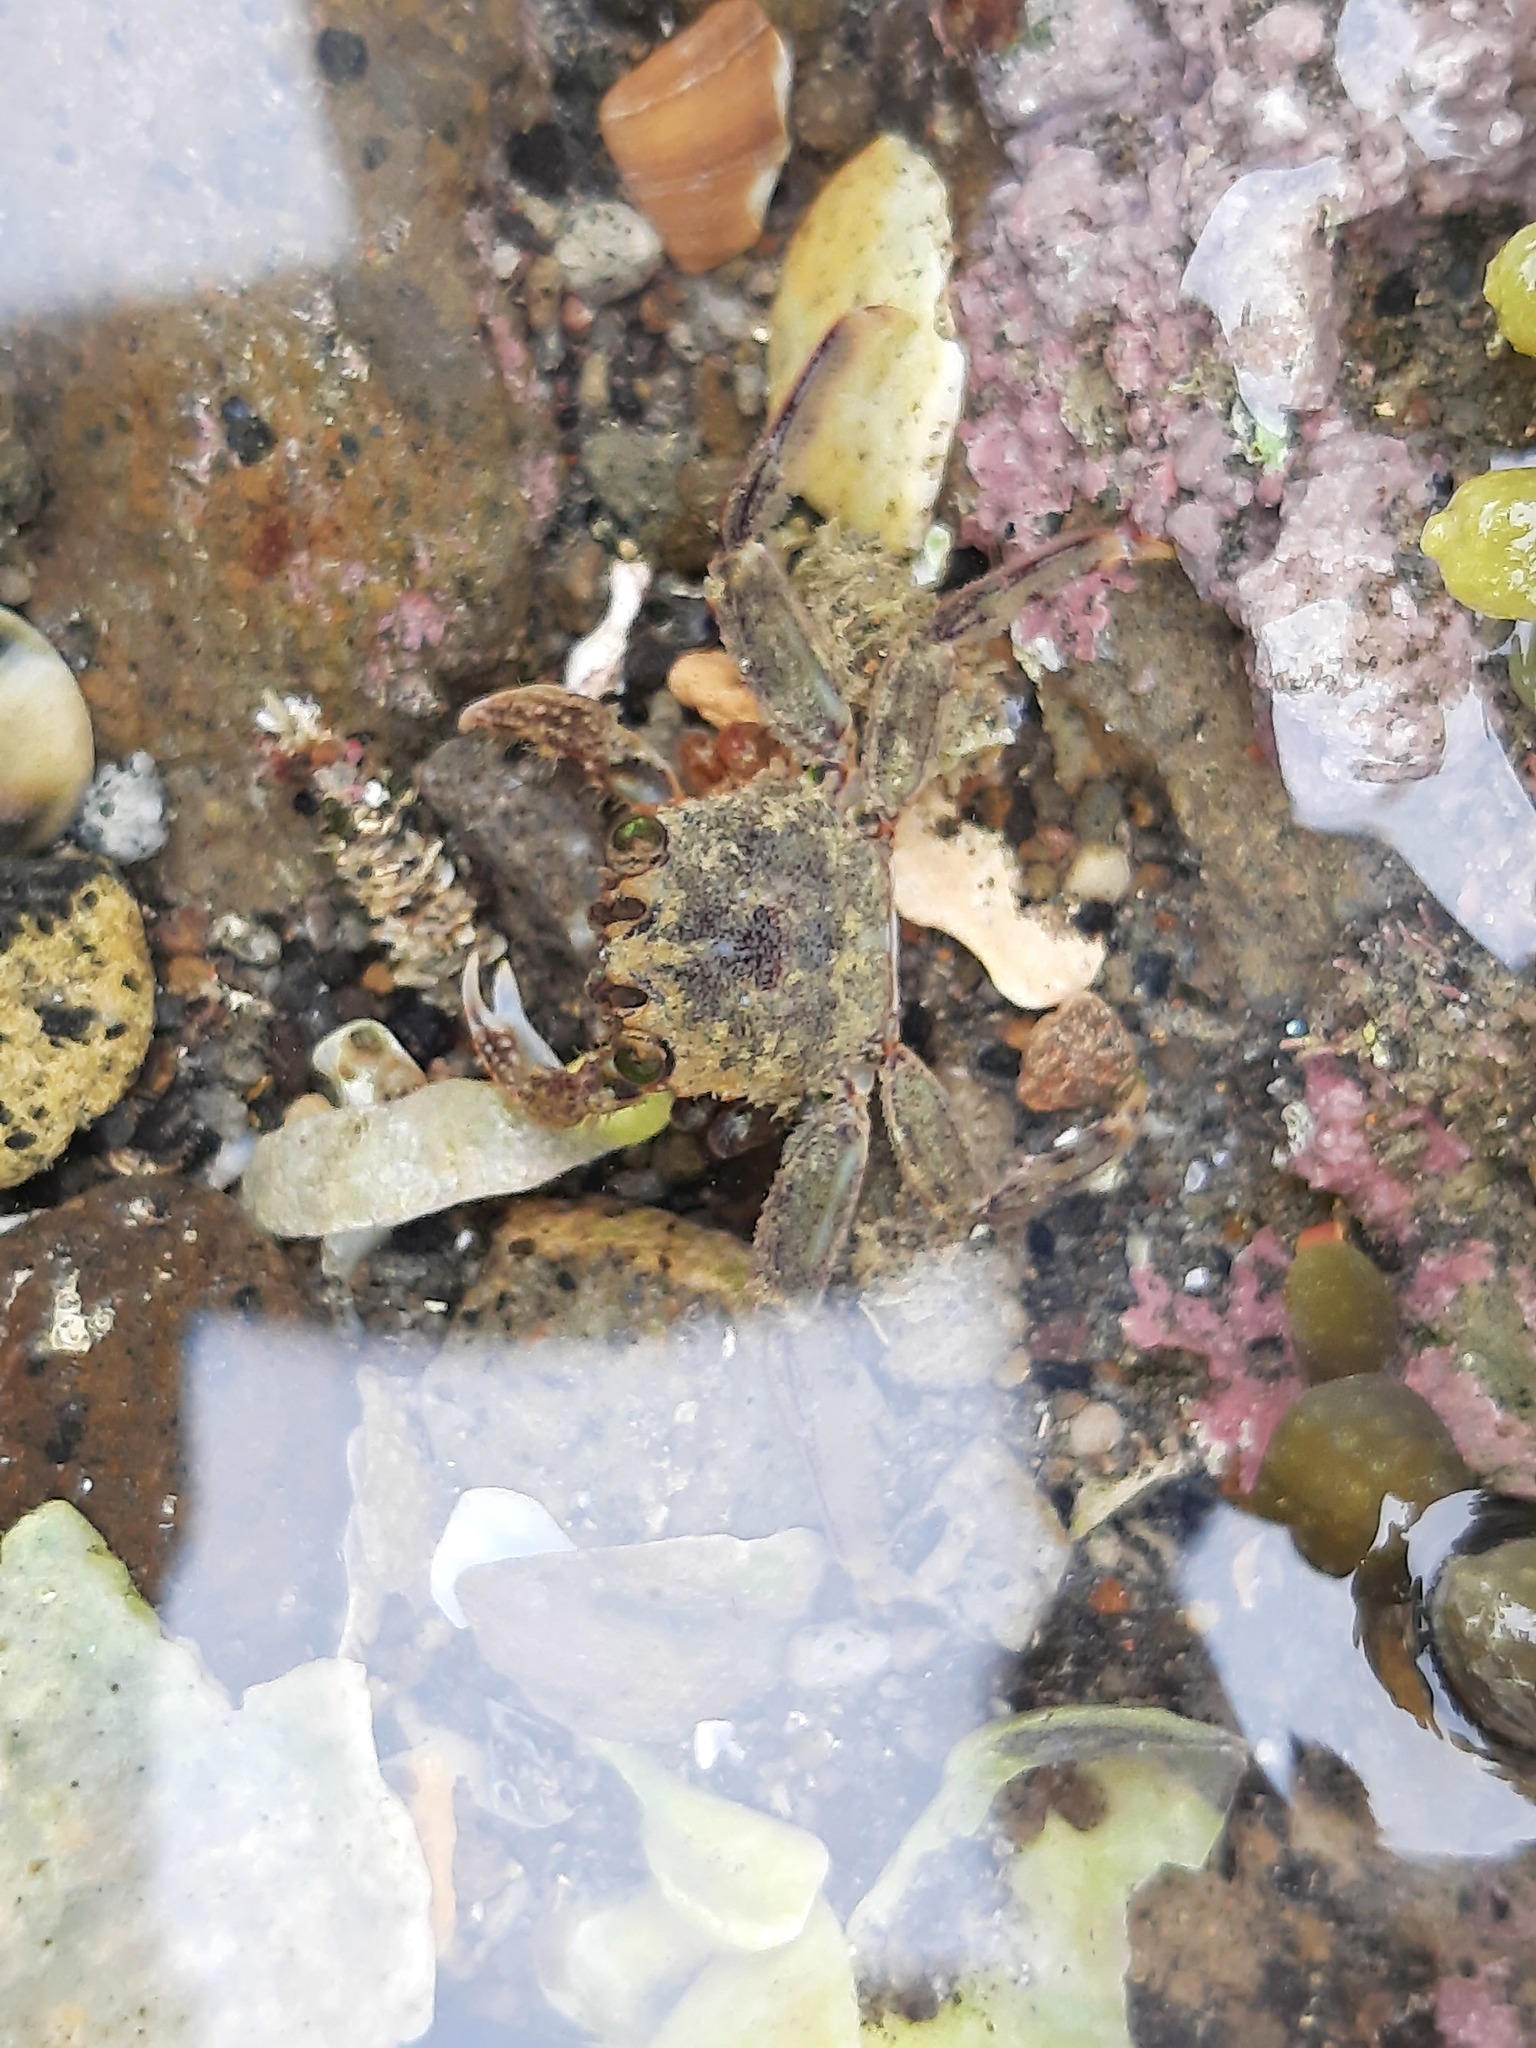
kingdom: Animalia
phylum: Arthropoda
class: Malacostraca
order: Decapoda
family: Plagusiidae
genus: Guinusia
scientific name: Guinusia chabrus
